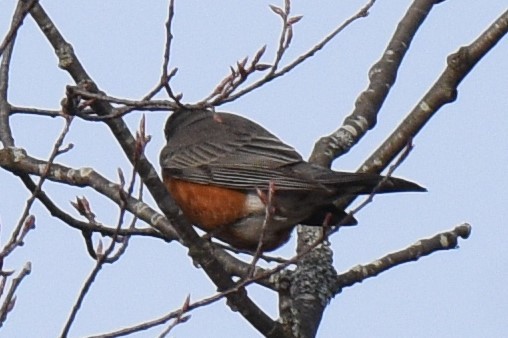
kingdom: Animalia
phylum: Chordata
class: Aves
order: Passeriformes
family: Turdidae
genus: Turdus
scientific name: Turdus migratorius
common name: American robin
